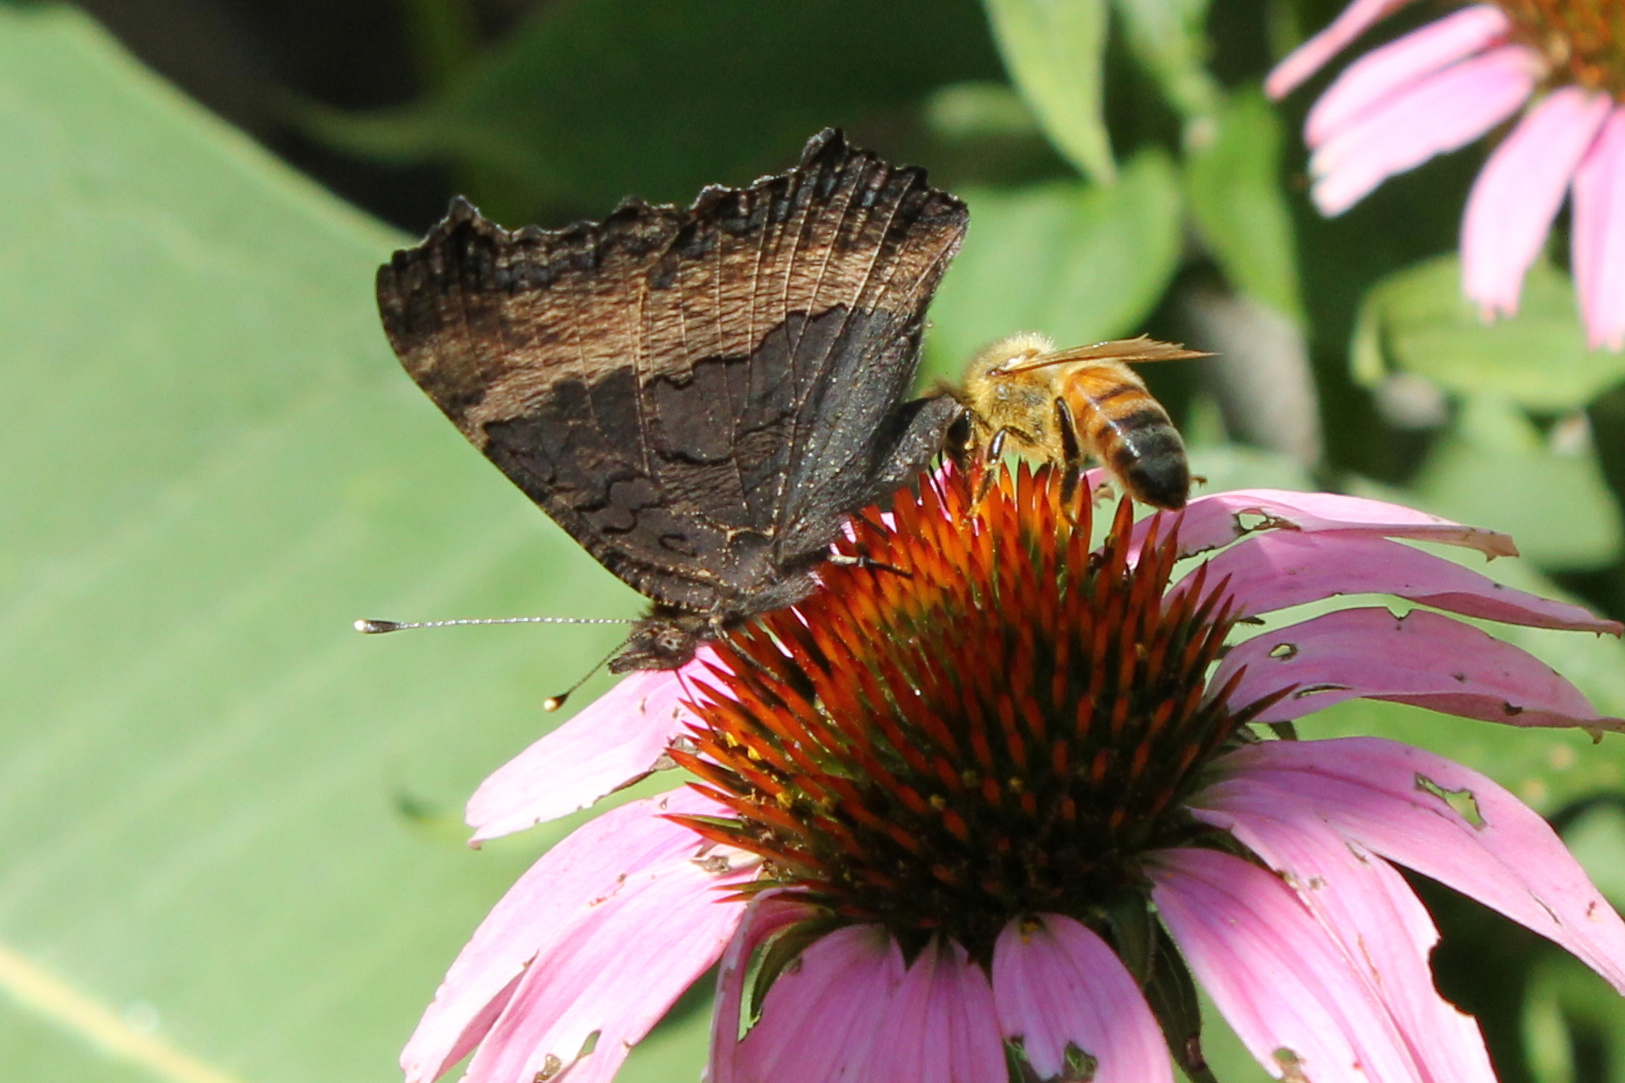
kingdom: Animalia
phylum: Arthropoda
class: Insecta
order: Hymenoptera
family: Apidae
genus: Apis
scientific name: Apis mellifera
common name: Honey bee
